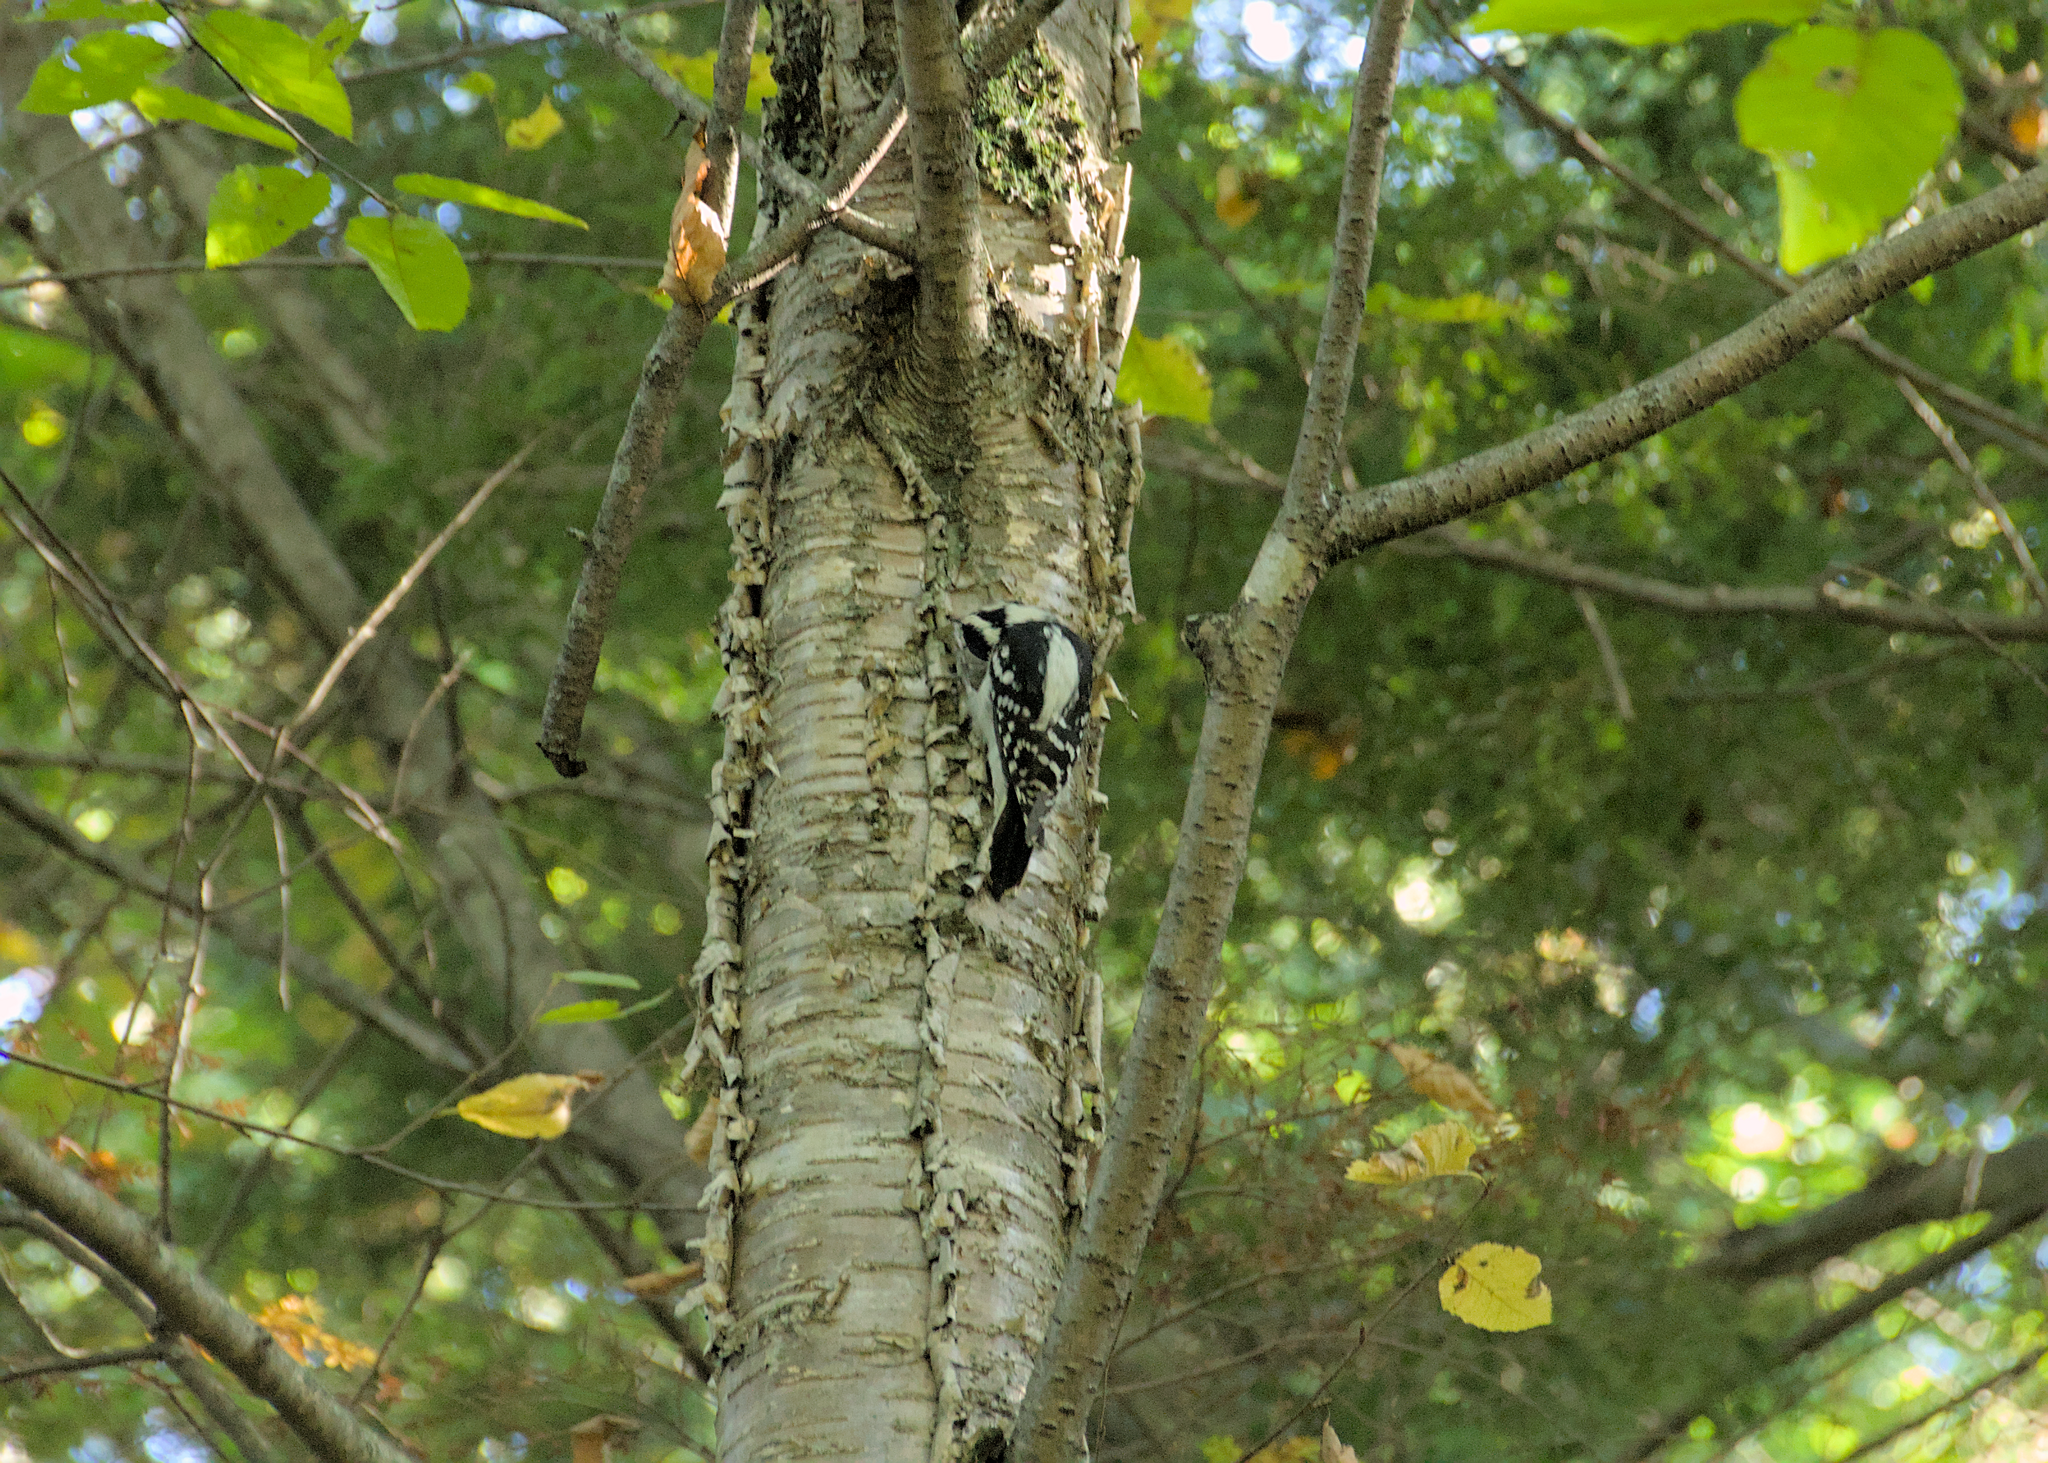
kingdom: Animalia
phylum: Chordata
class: Aves
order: Piciformes
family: Picidae
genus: Leuconotopicus
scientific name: Leuconotopicus villosus
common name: Hairy woodpecker
